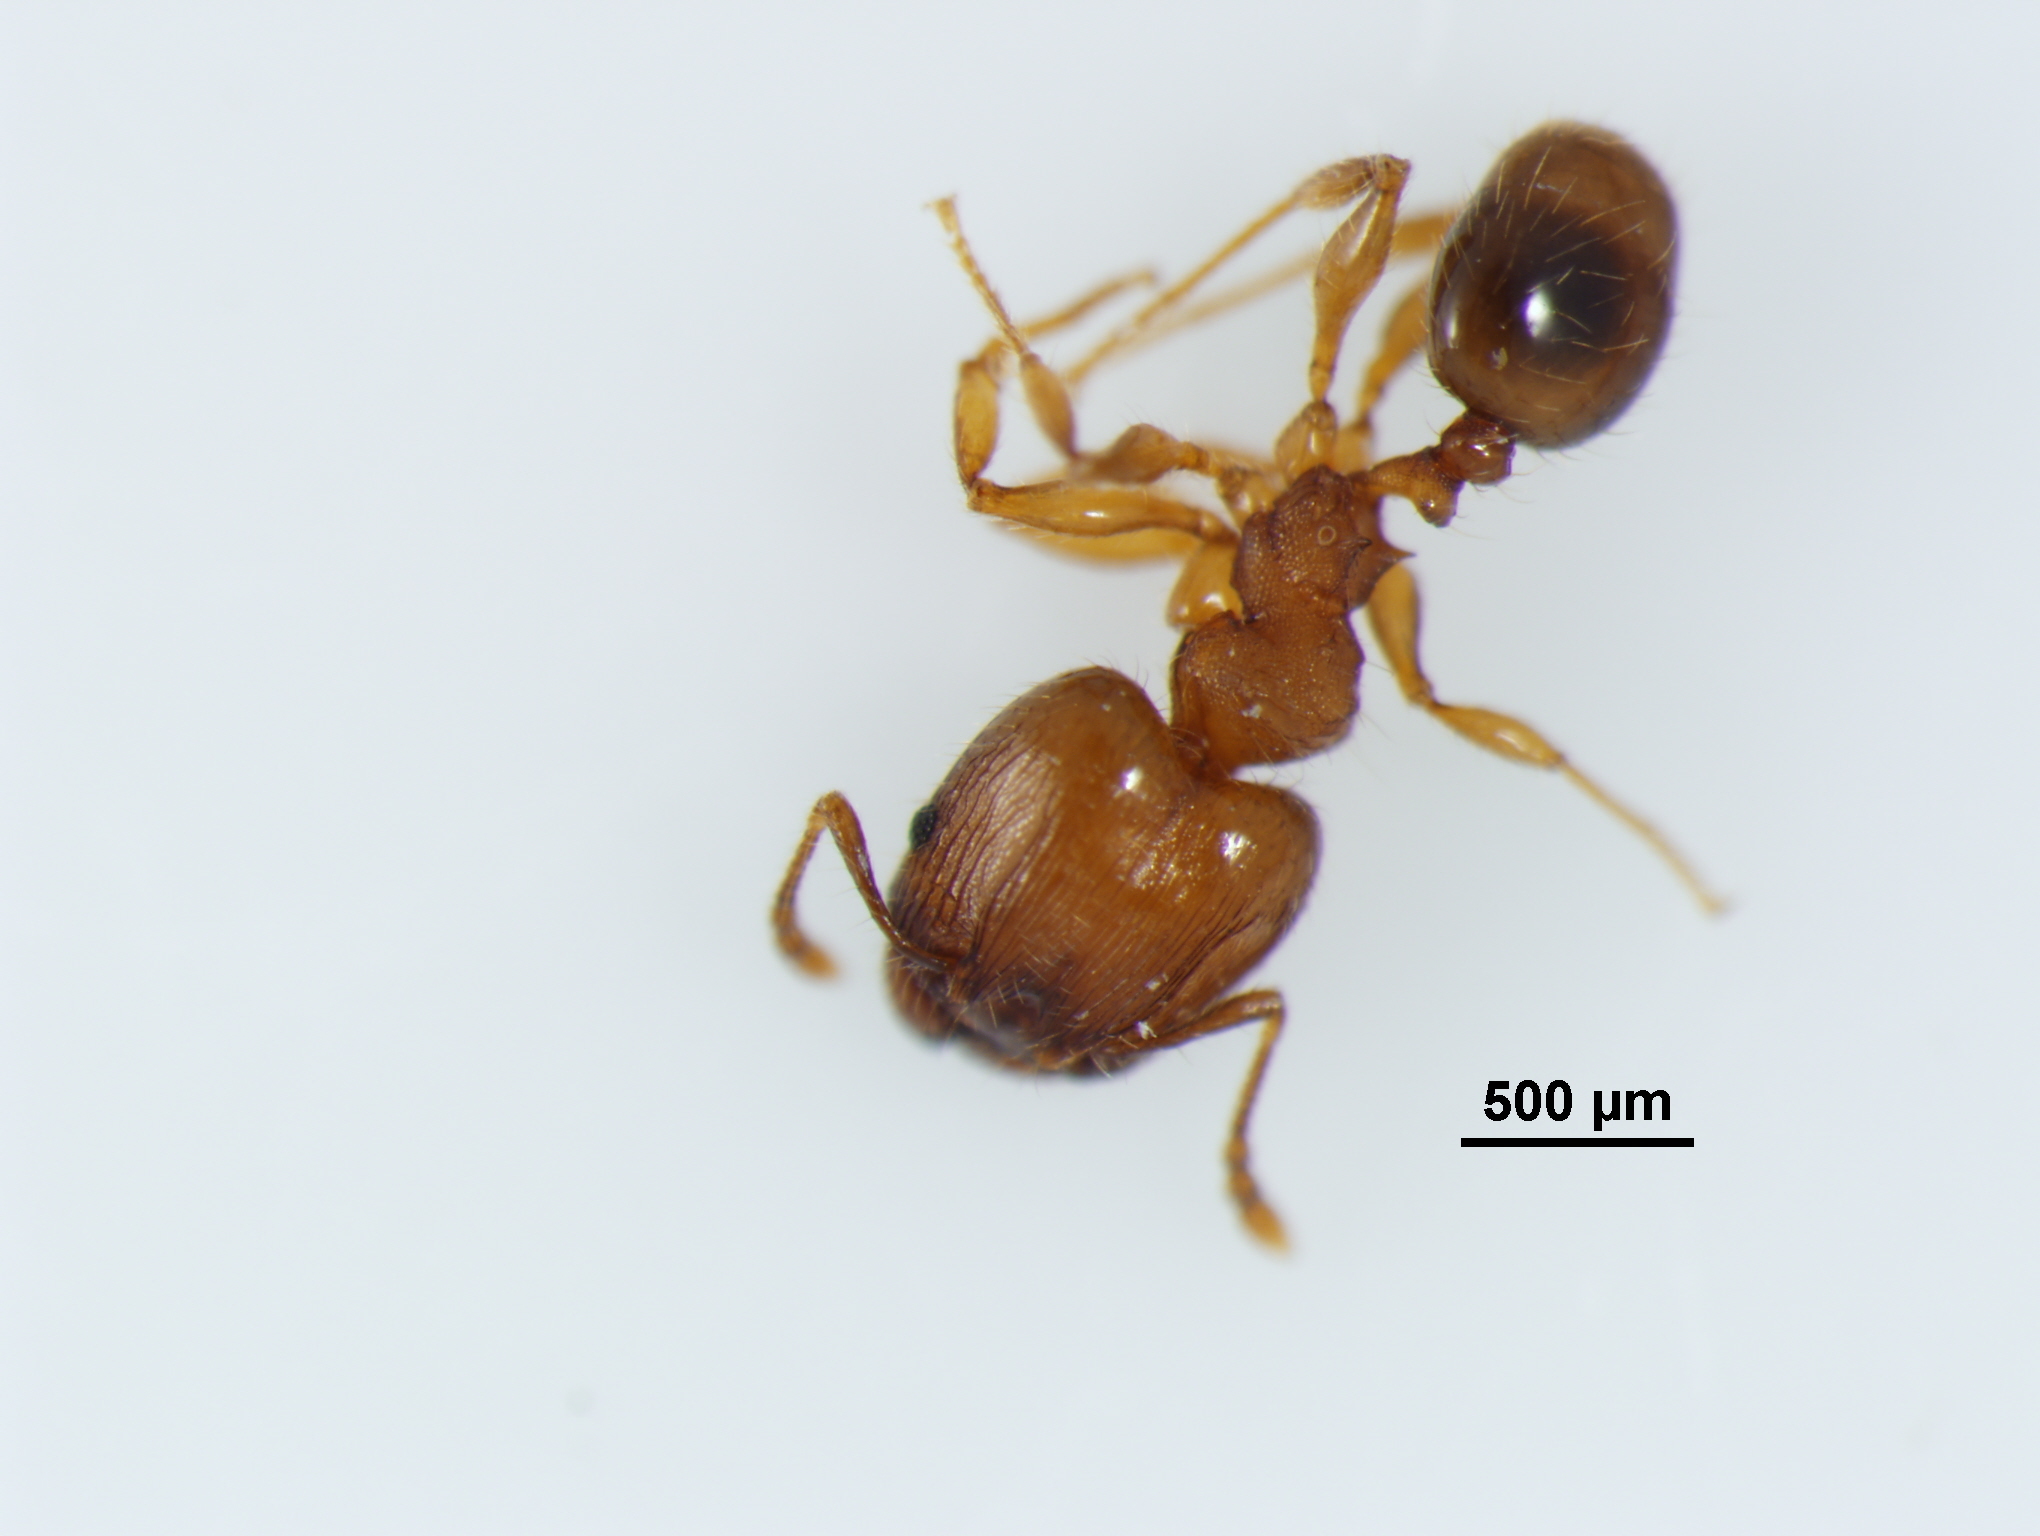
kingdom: Animalia
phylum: Arthropoda
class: Insecta
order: Hymenoptera
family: Formicidae
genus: Pheidole
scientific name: Pheidole navigans
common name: Navigating big-headed ant
